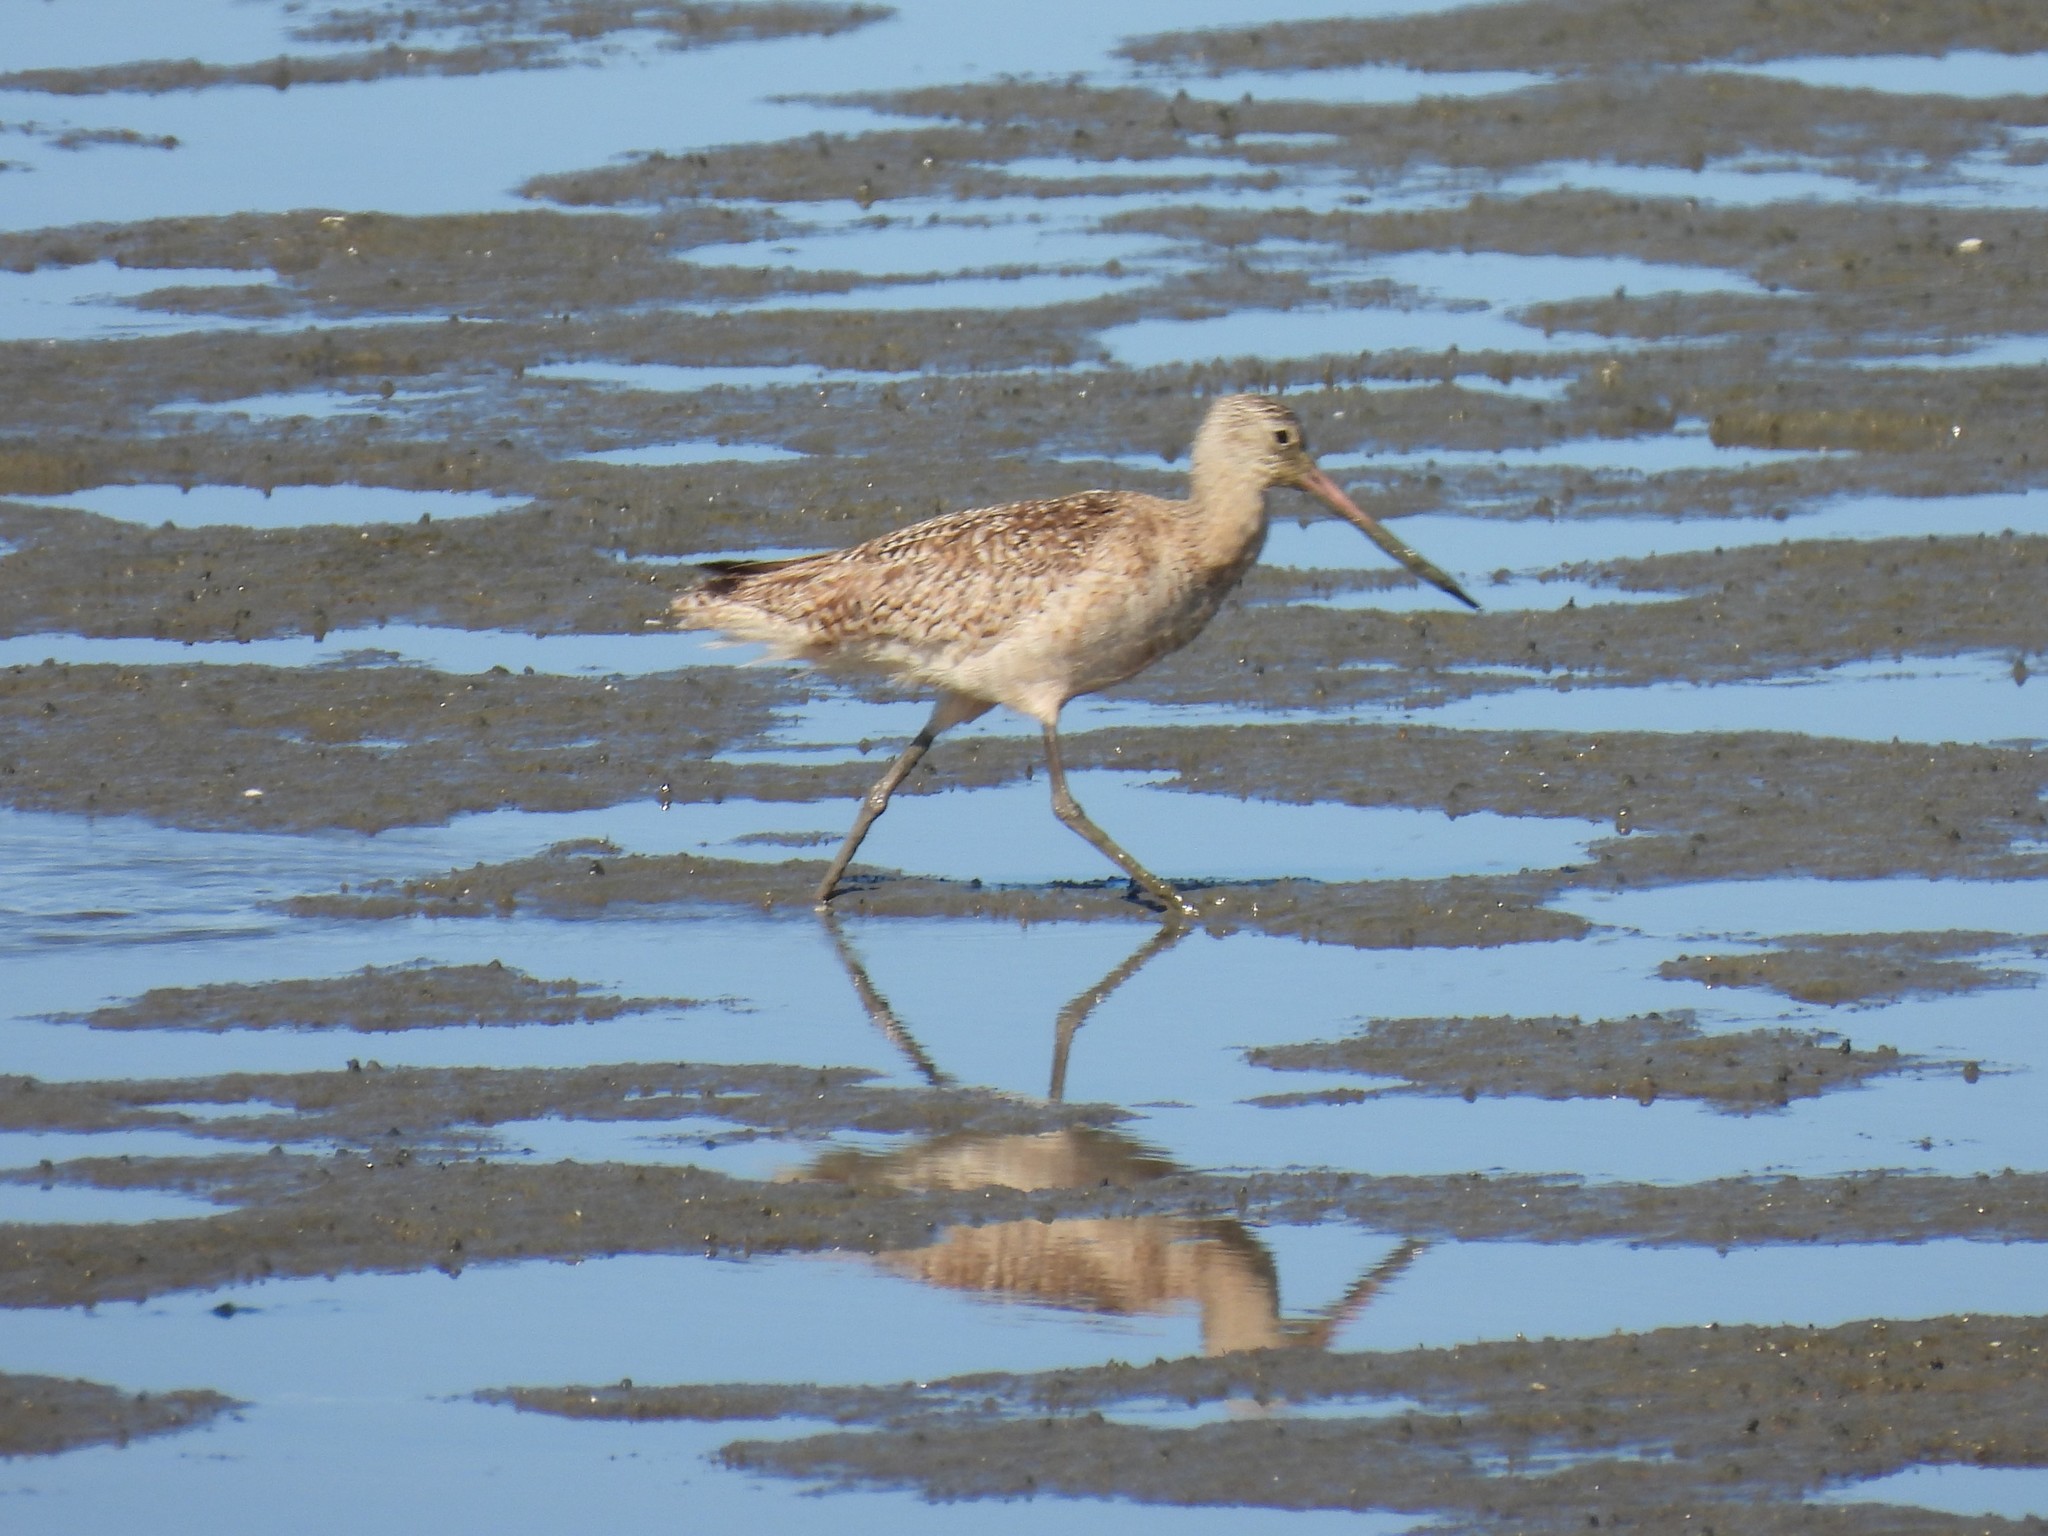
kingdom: Animalia
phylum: Chordata
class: Aves
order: Charadriiformes
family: Scolopacidae
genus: Limosa
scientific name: Limosa fedoa
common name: Marbled godwit
